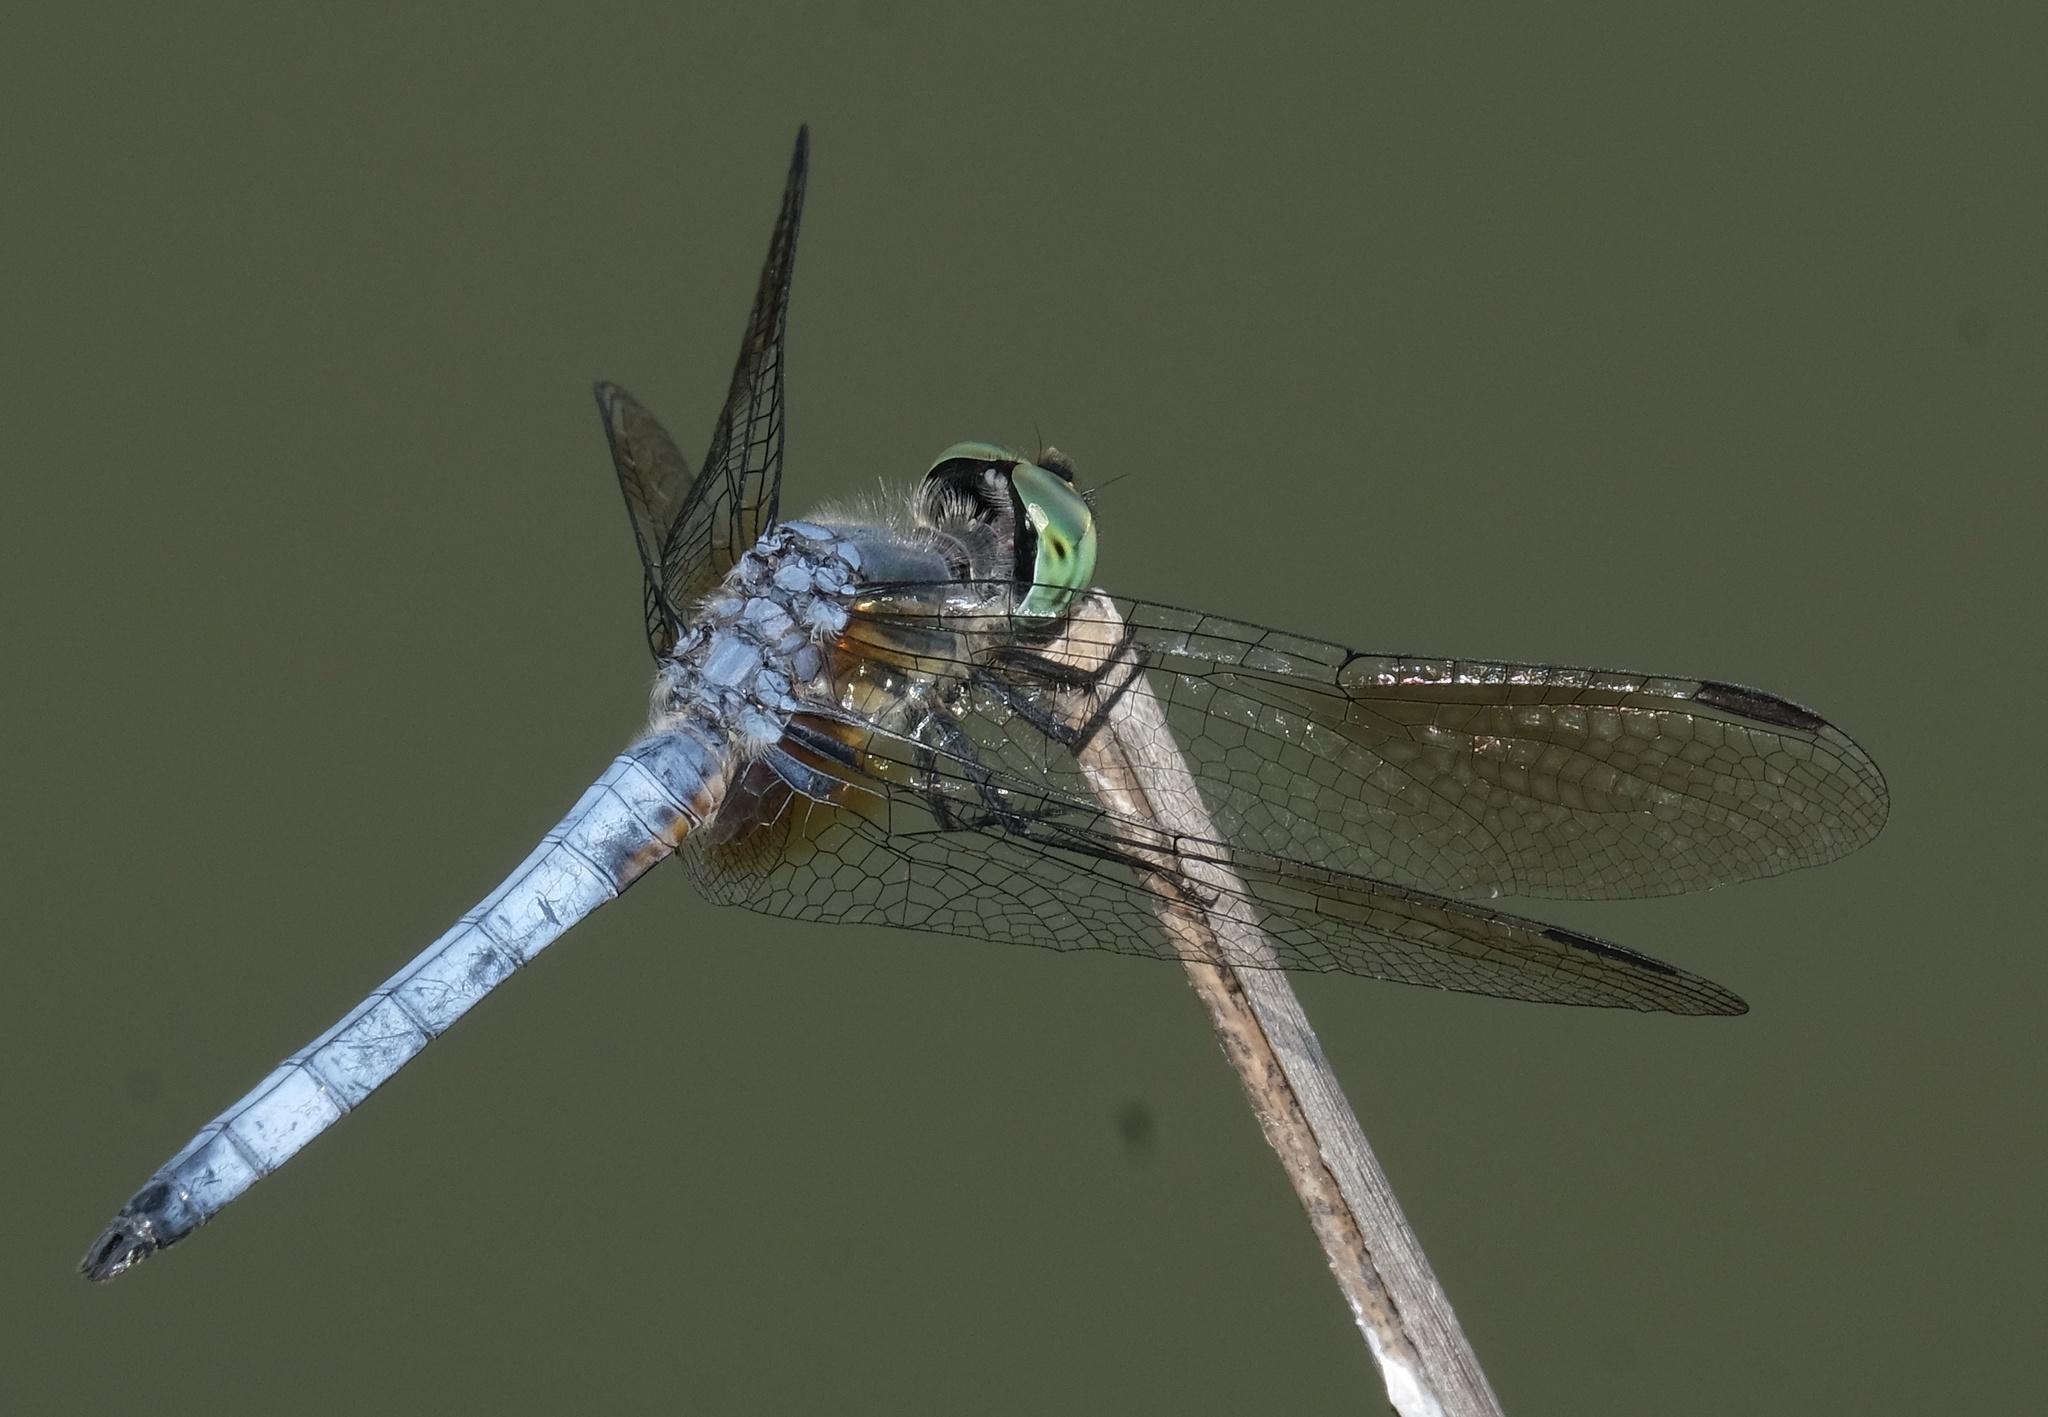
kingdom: Animalia
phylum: Arthropoda
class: Insecta
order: Odonata
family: Libellulidae
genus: Pachydiplax
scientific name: Pachydiplax longipennis
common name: Blue dasher
